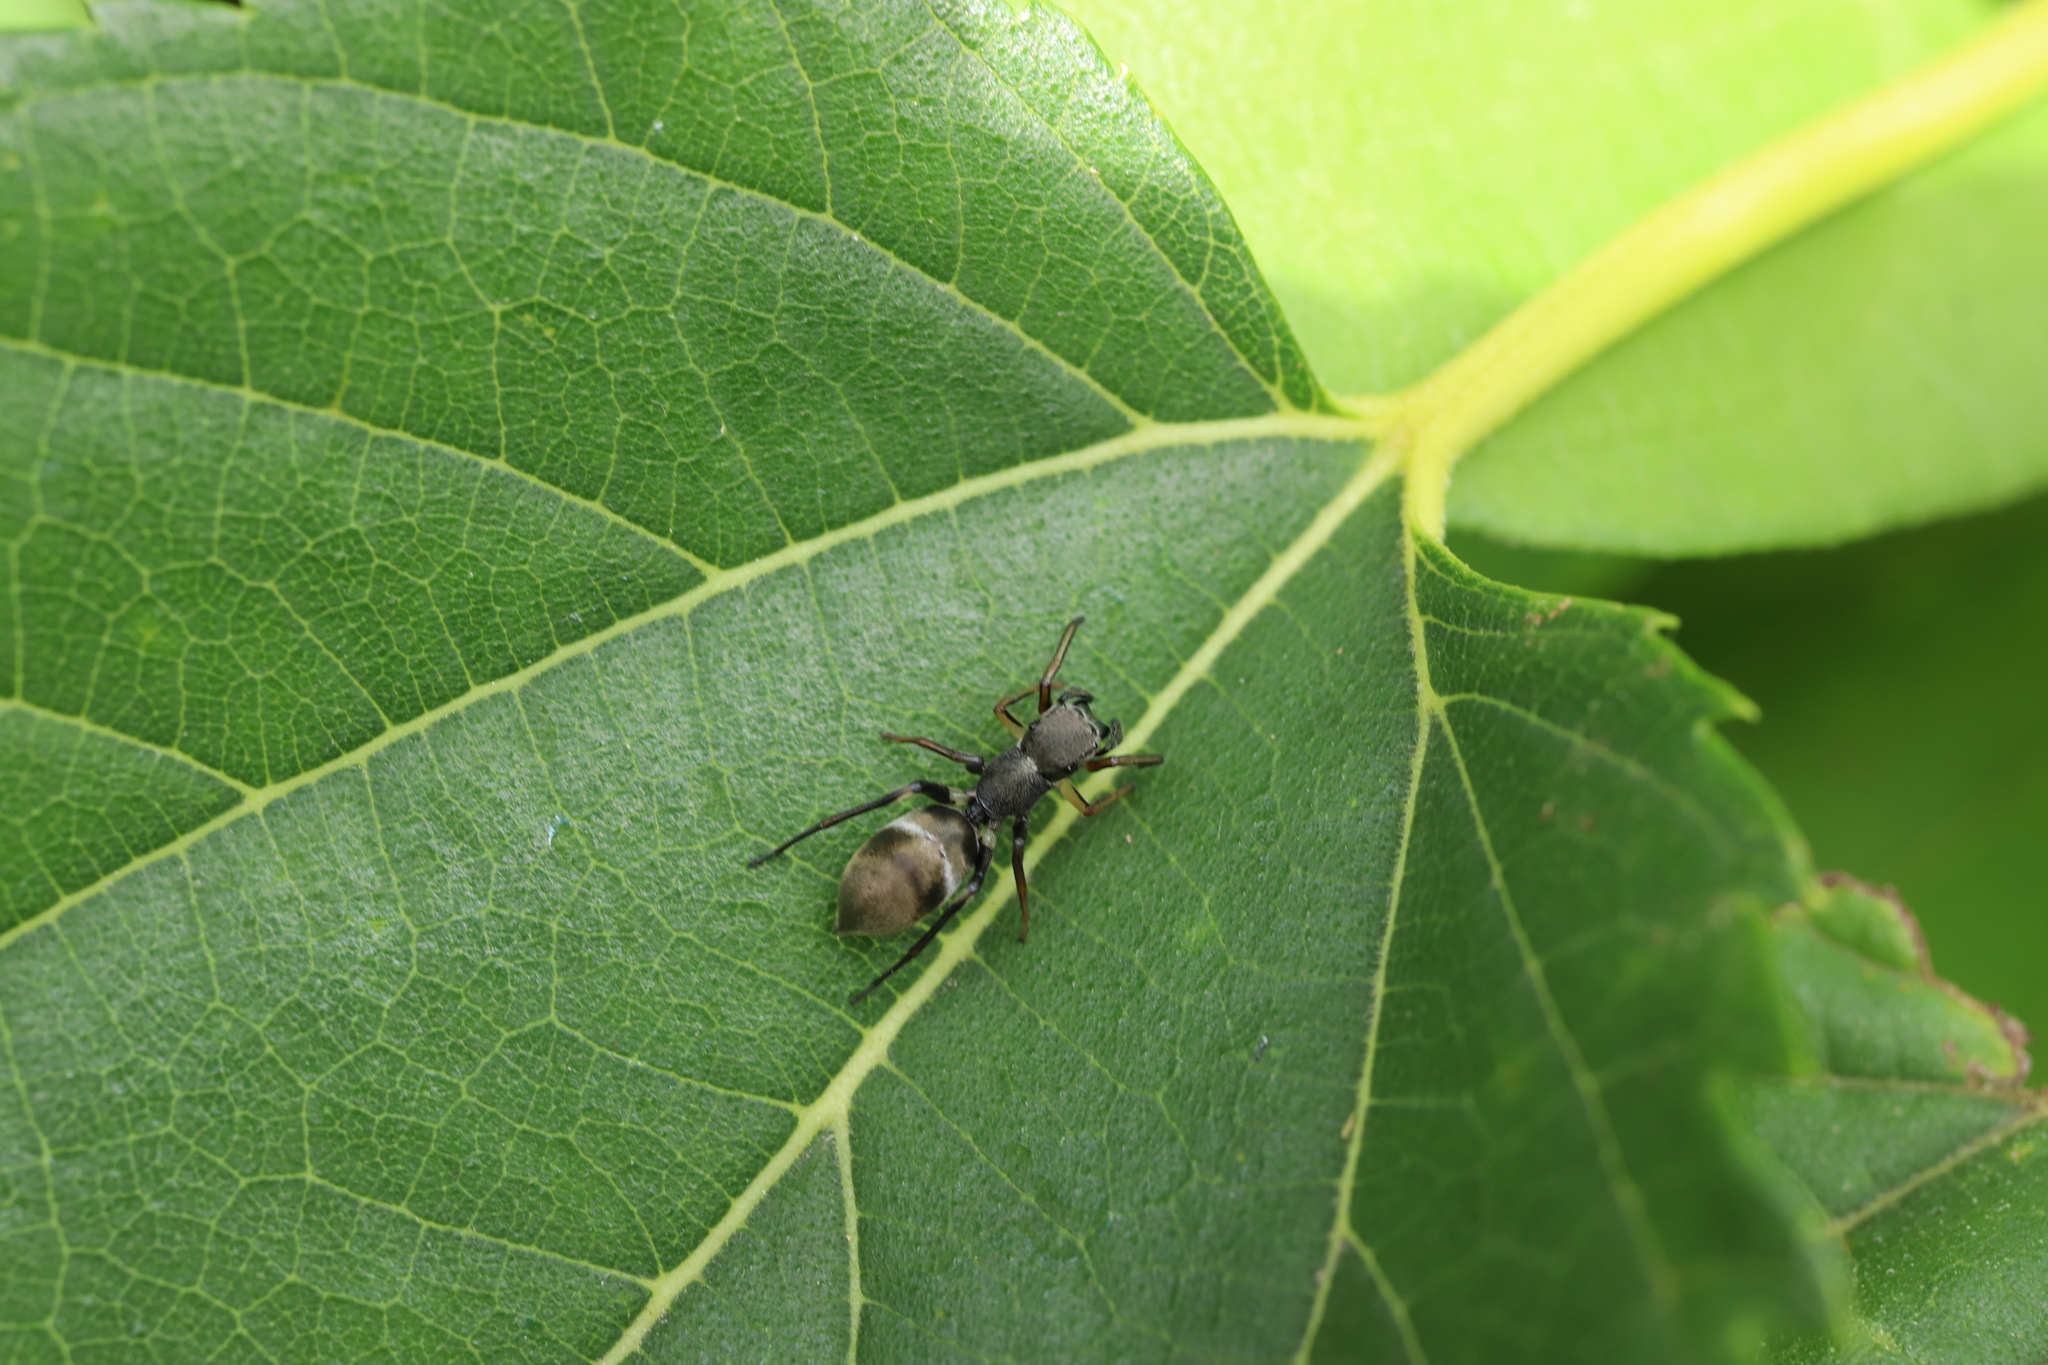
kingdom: Animalia
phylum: Arthropoda
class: Arachnida
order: Araneae
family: Salticidae
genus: Myrmarachne
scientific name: Myrmarachne japonica
